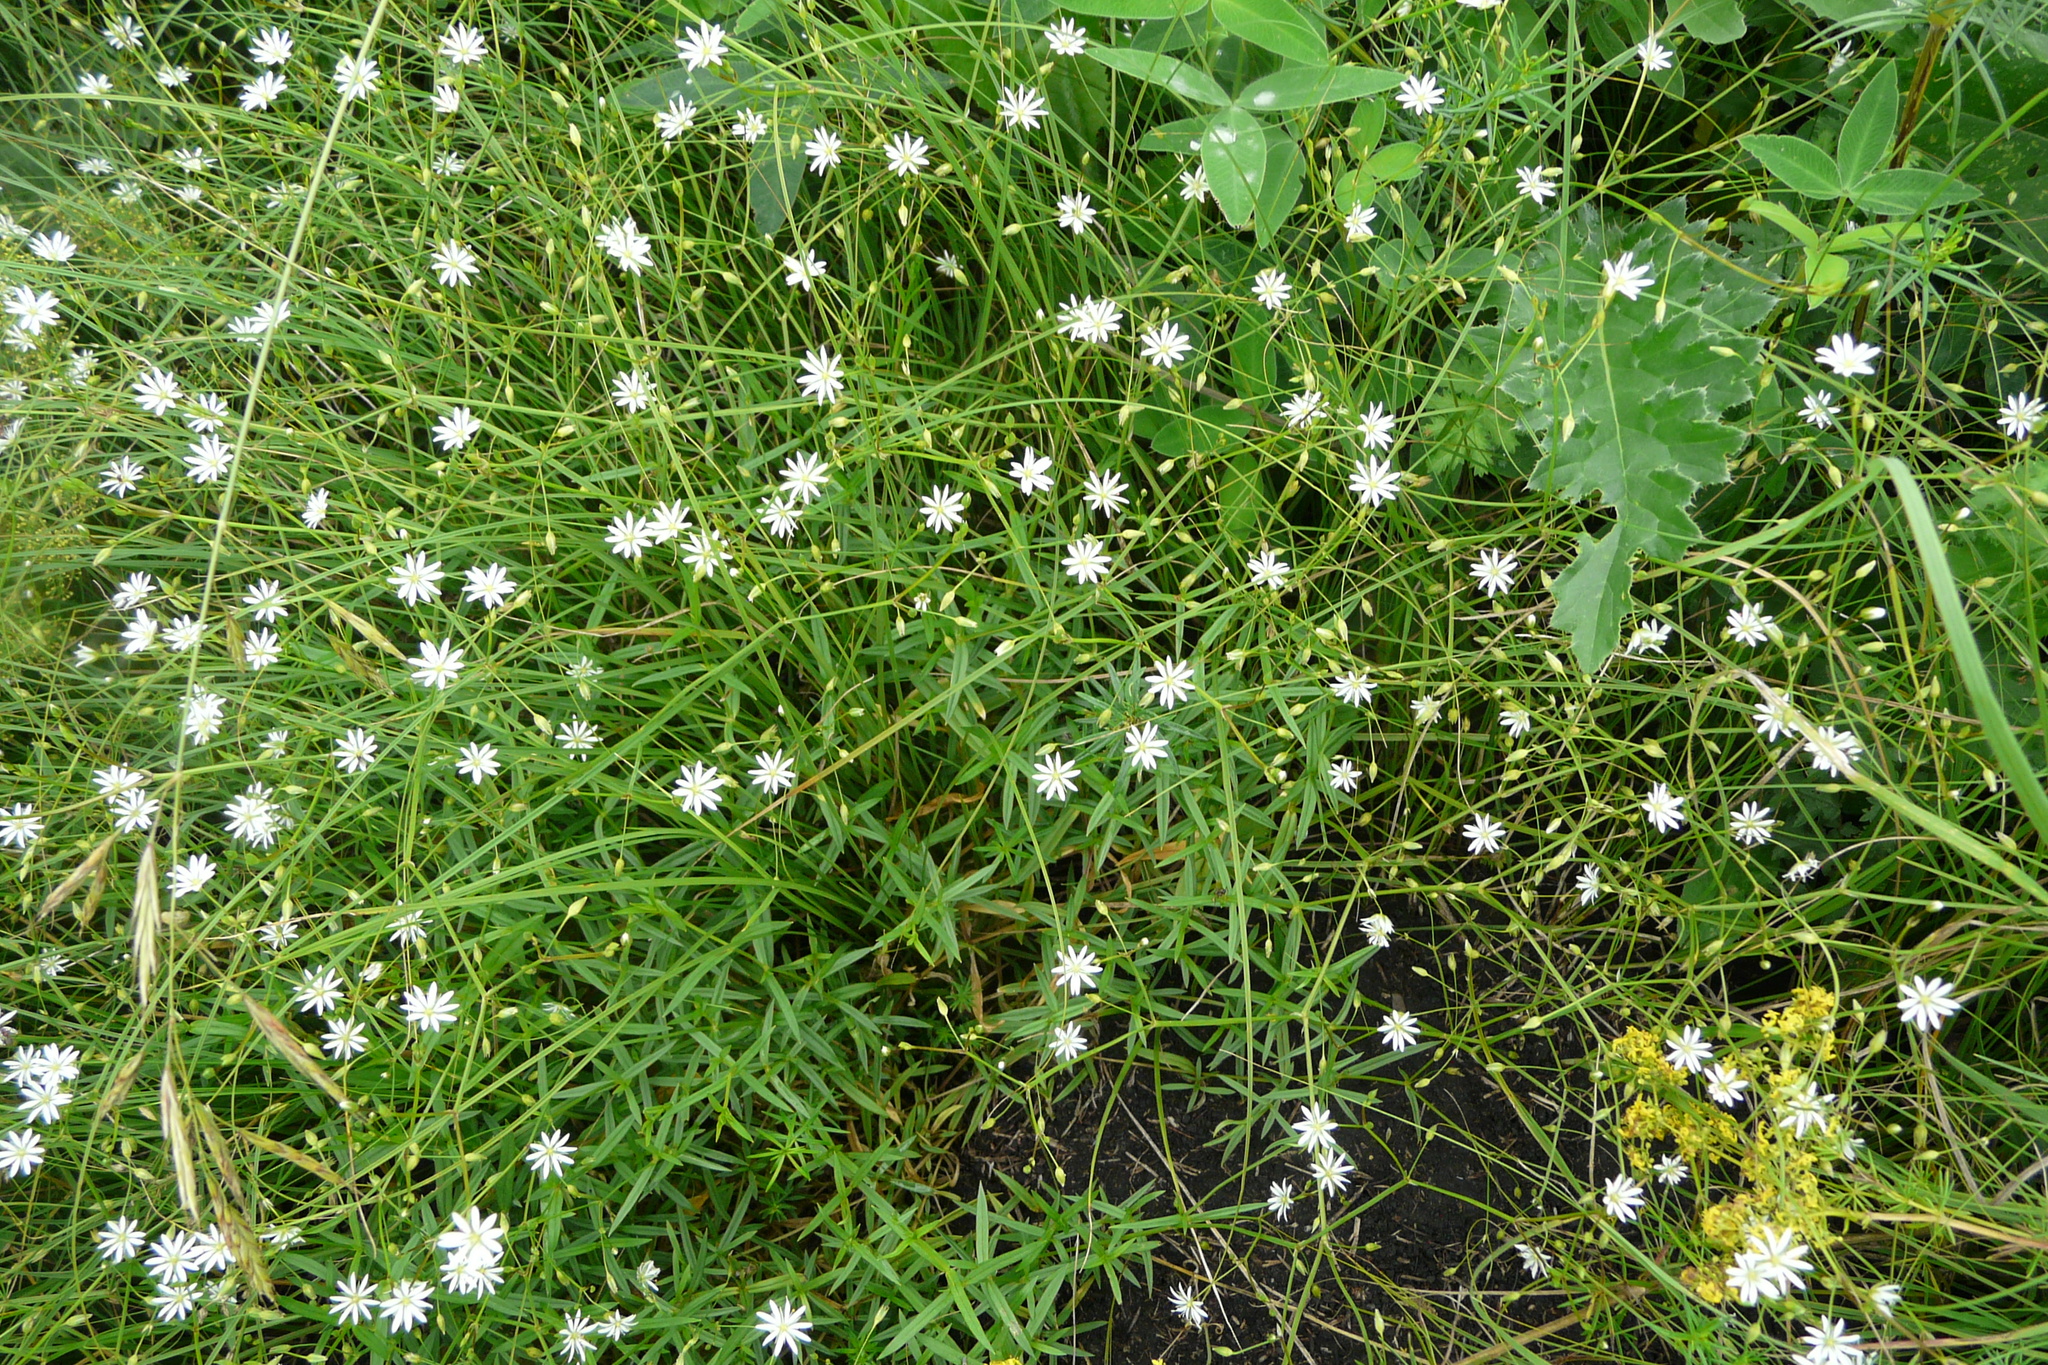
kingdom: Plantae
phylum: Tracheophyta
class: Magnoliopsida
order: Caryophyllales
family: Caryophyllaceae
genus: Stellaria
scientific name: Stellaria graminea
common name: Grass-like starwort
